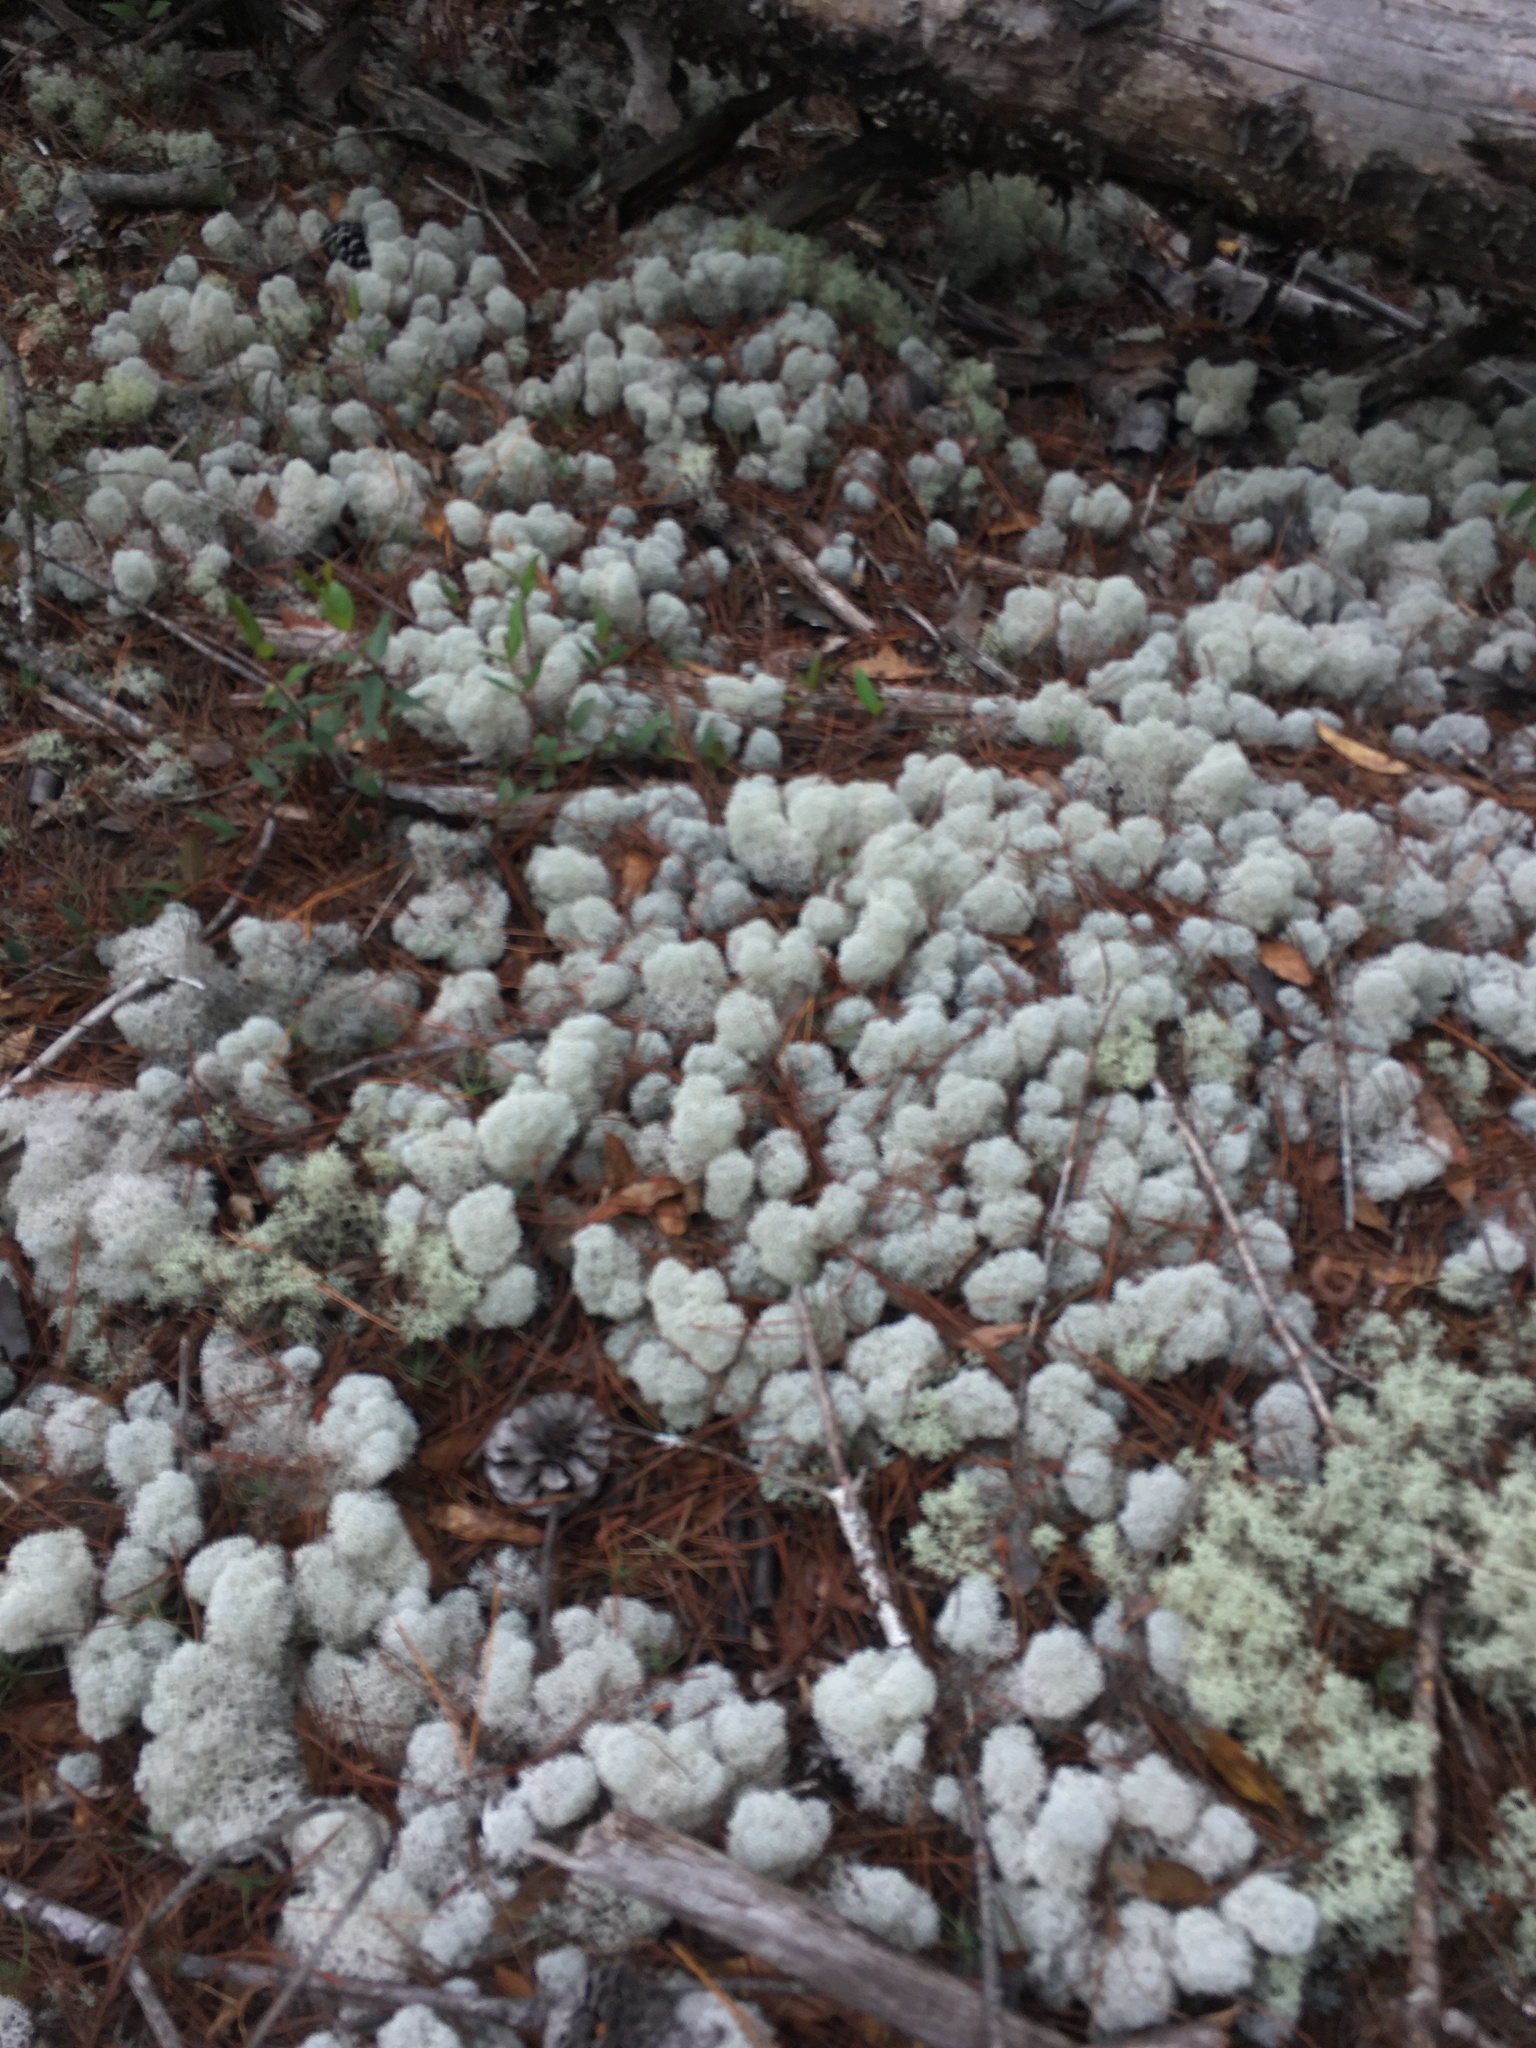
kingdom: Fungi
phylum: Ascomycota
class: Lecanoromycetes
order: Lecanorales
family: Cladoniaceae
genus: Cladonia
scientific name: Cladonia evansii
